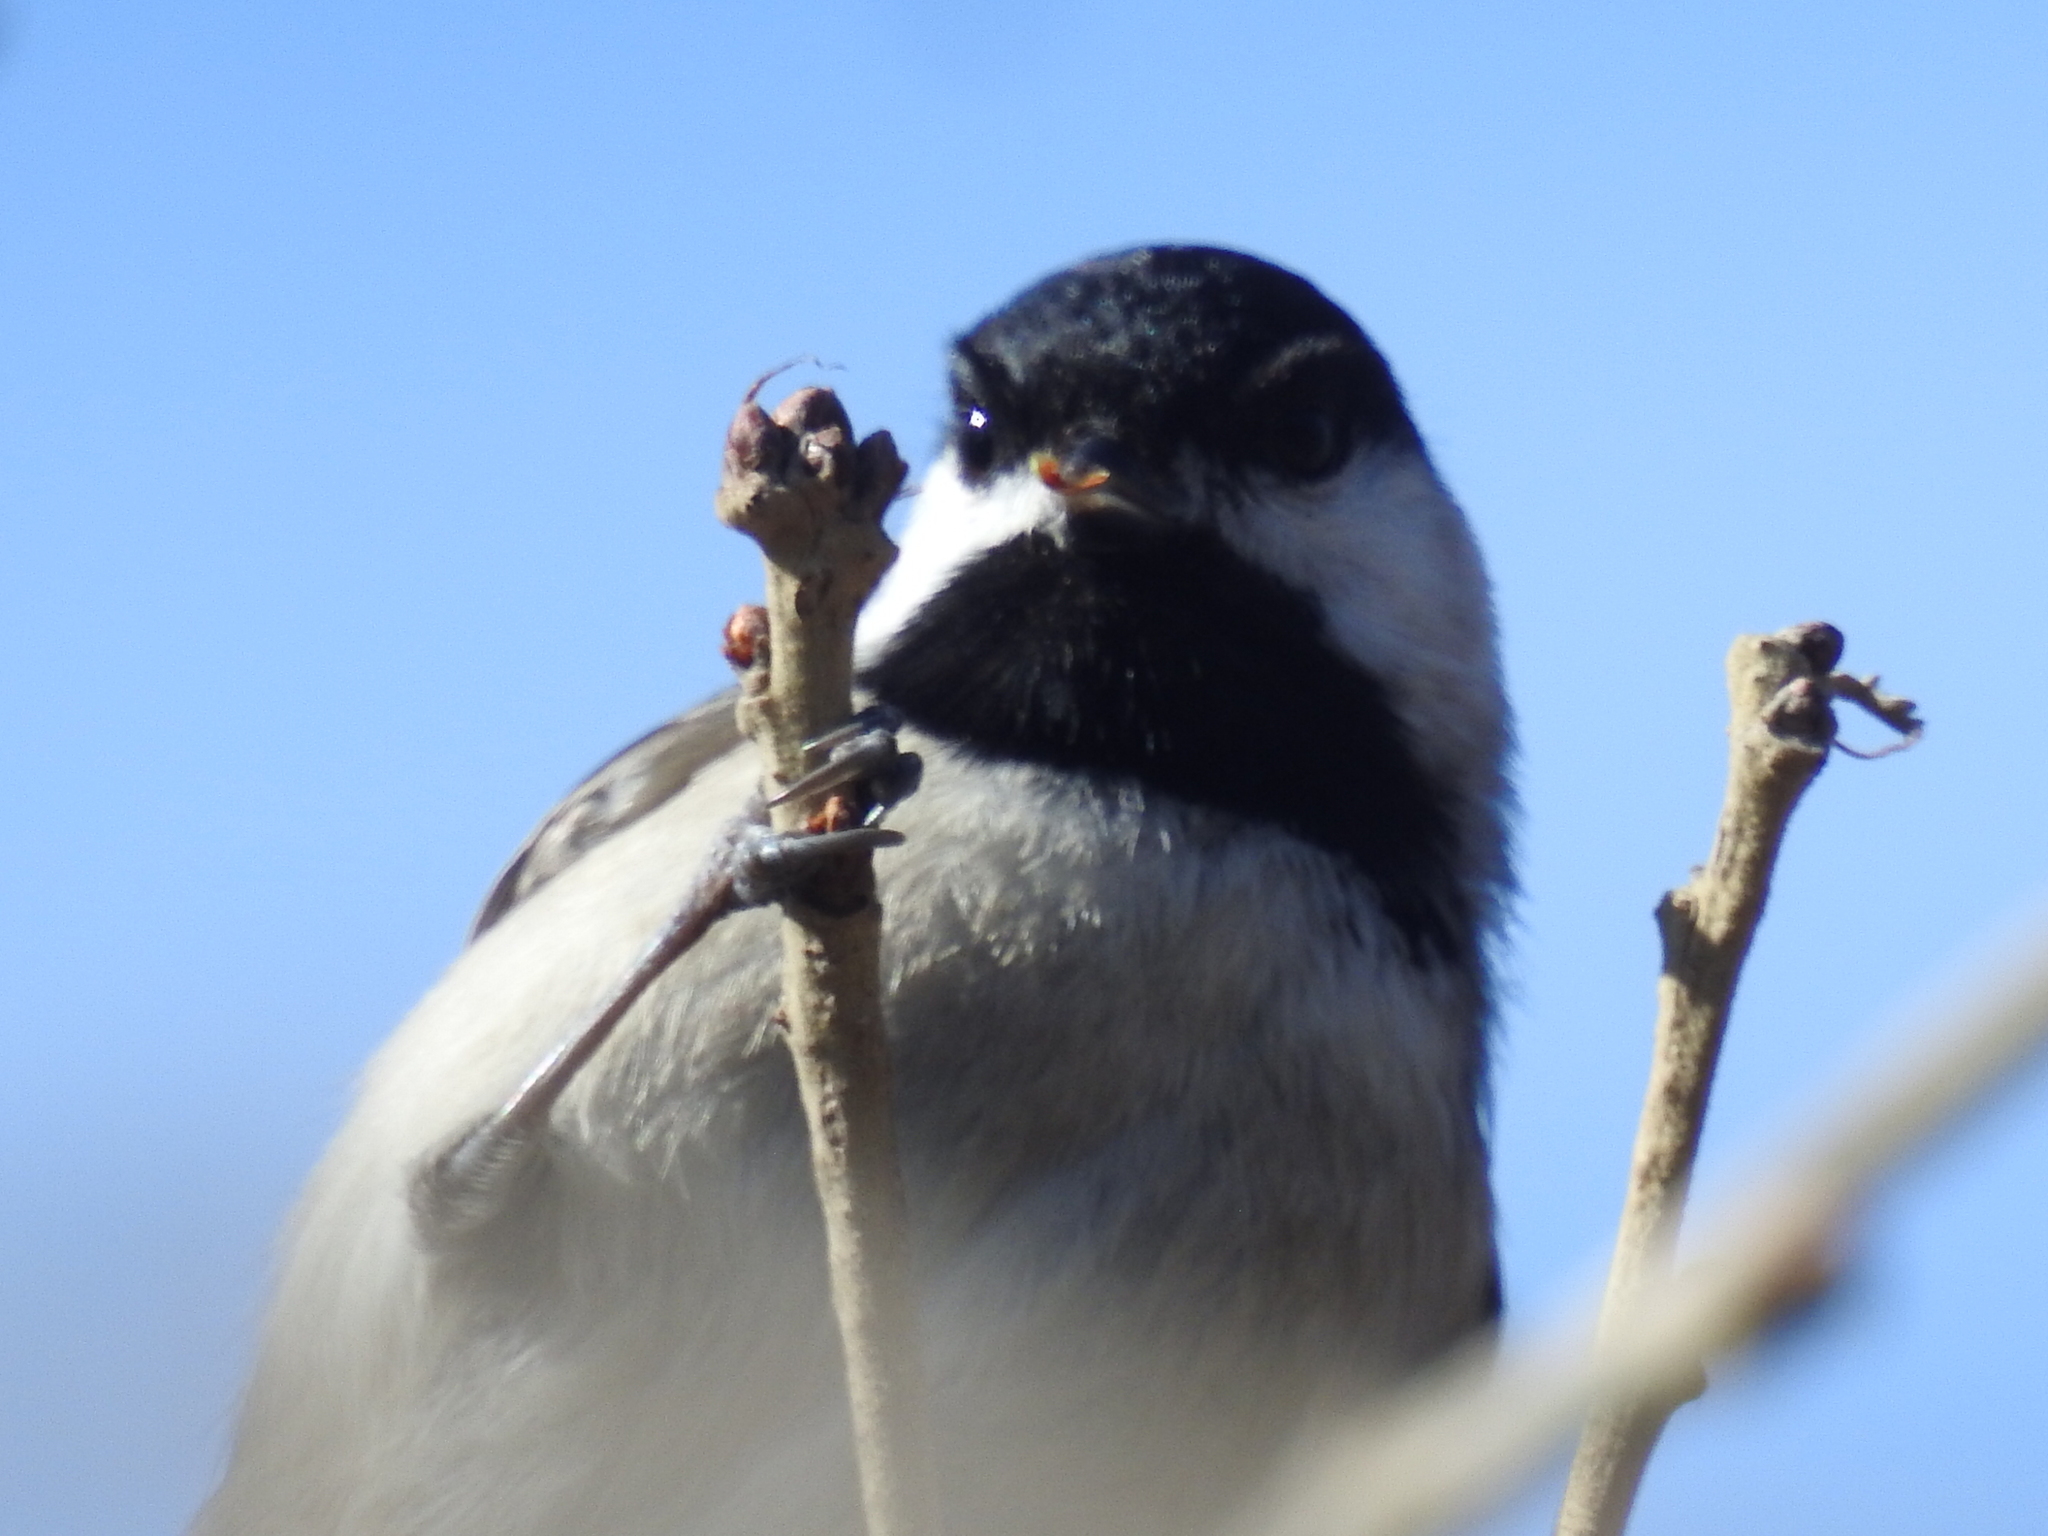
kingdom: Animalia
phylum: Chordata
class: Aves
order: Passeriformes
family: Paridae
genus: Poecile
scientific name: Poecile carolinensis
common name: Carolina chickadee
